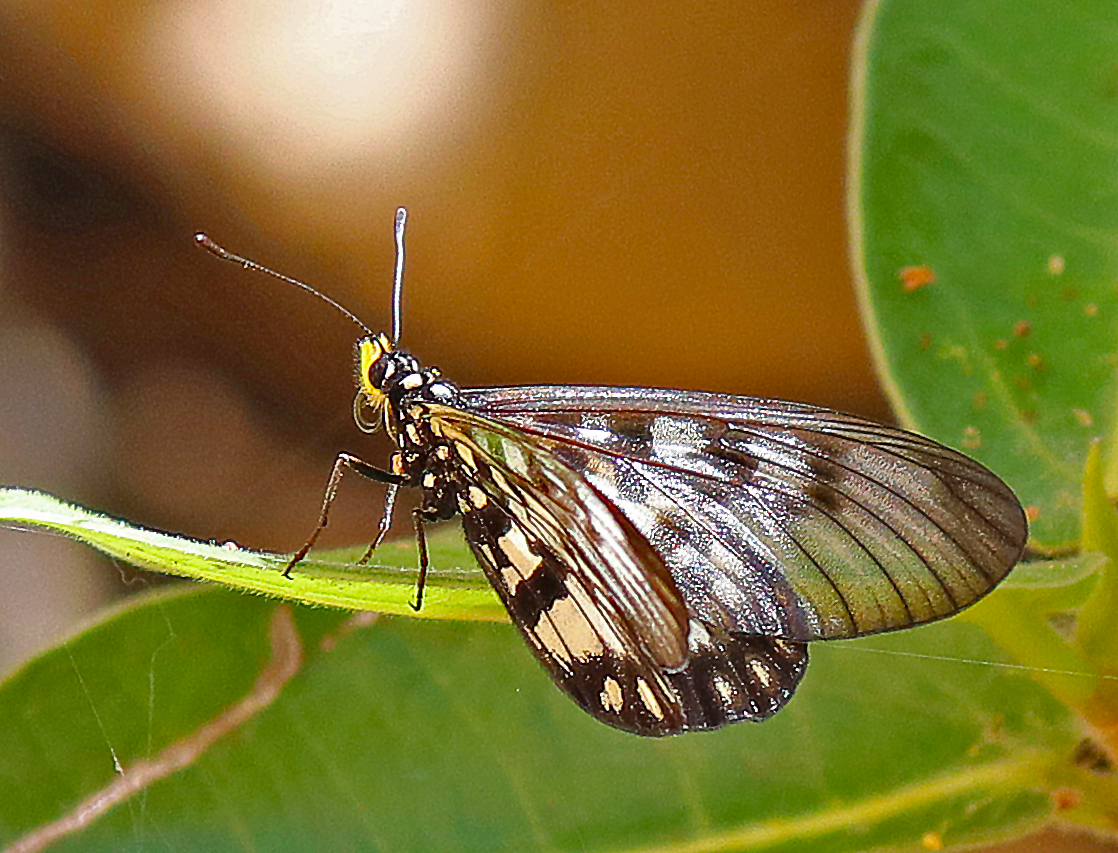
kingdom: Animalia
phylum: Arthropoda
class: Insecta
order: Lepidoptera
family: Nymphalidae
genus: Acraea
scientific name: Acraea andromacha
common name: Glasswing
